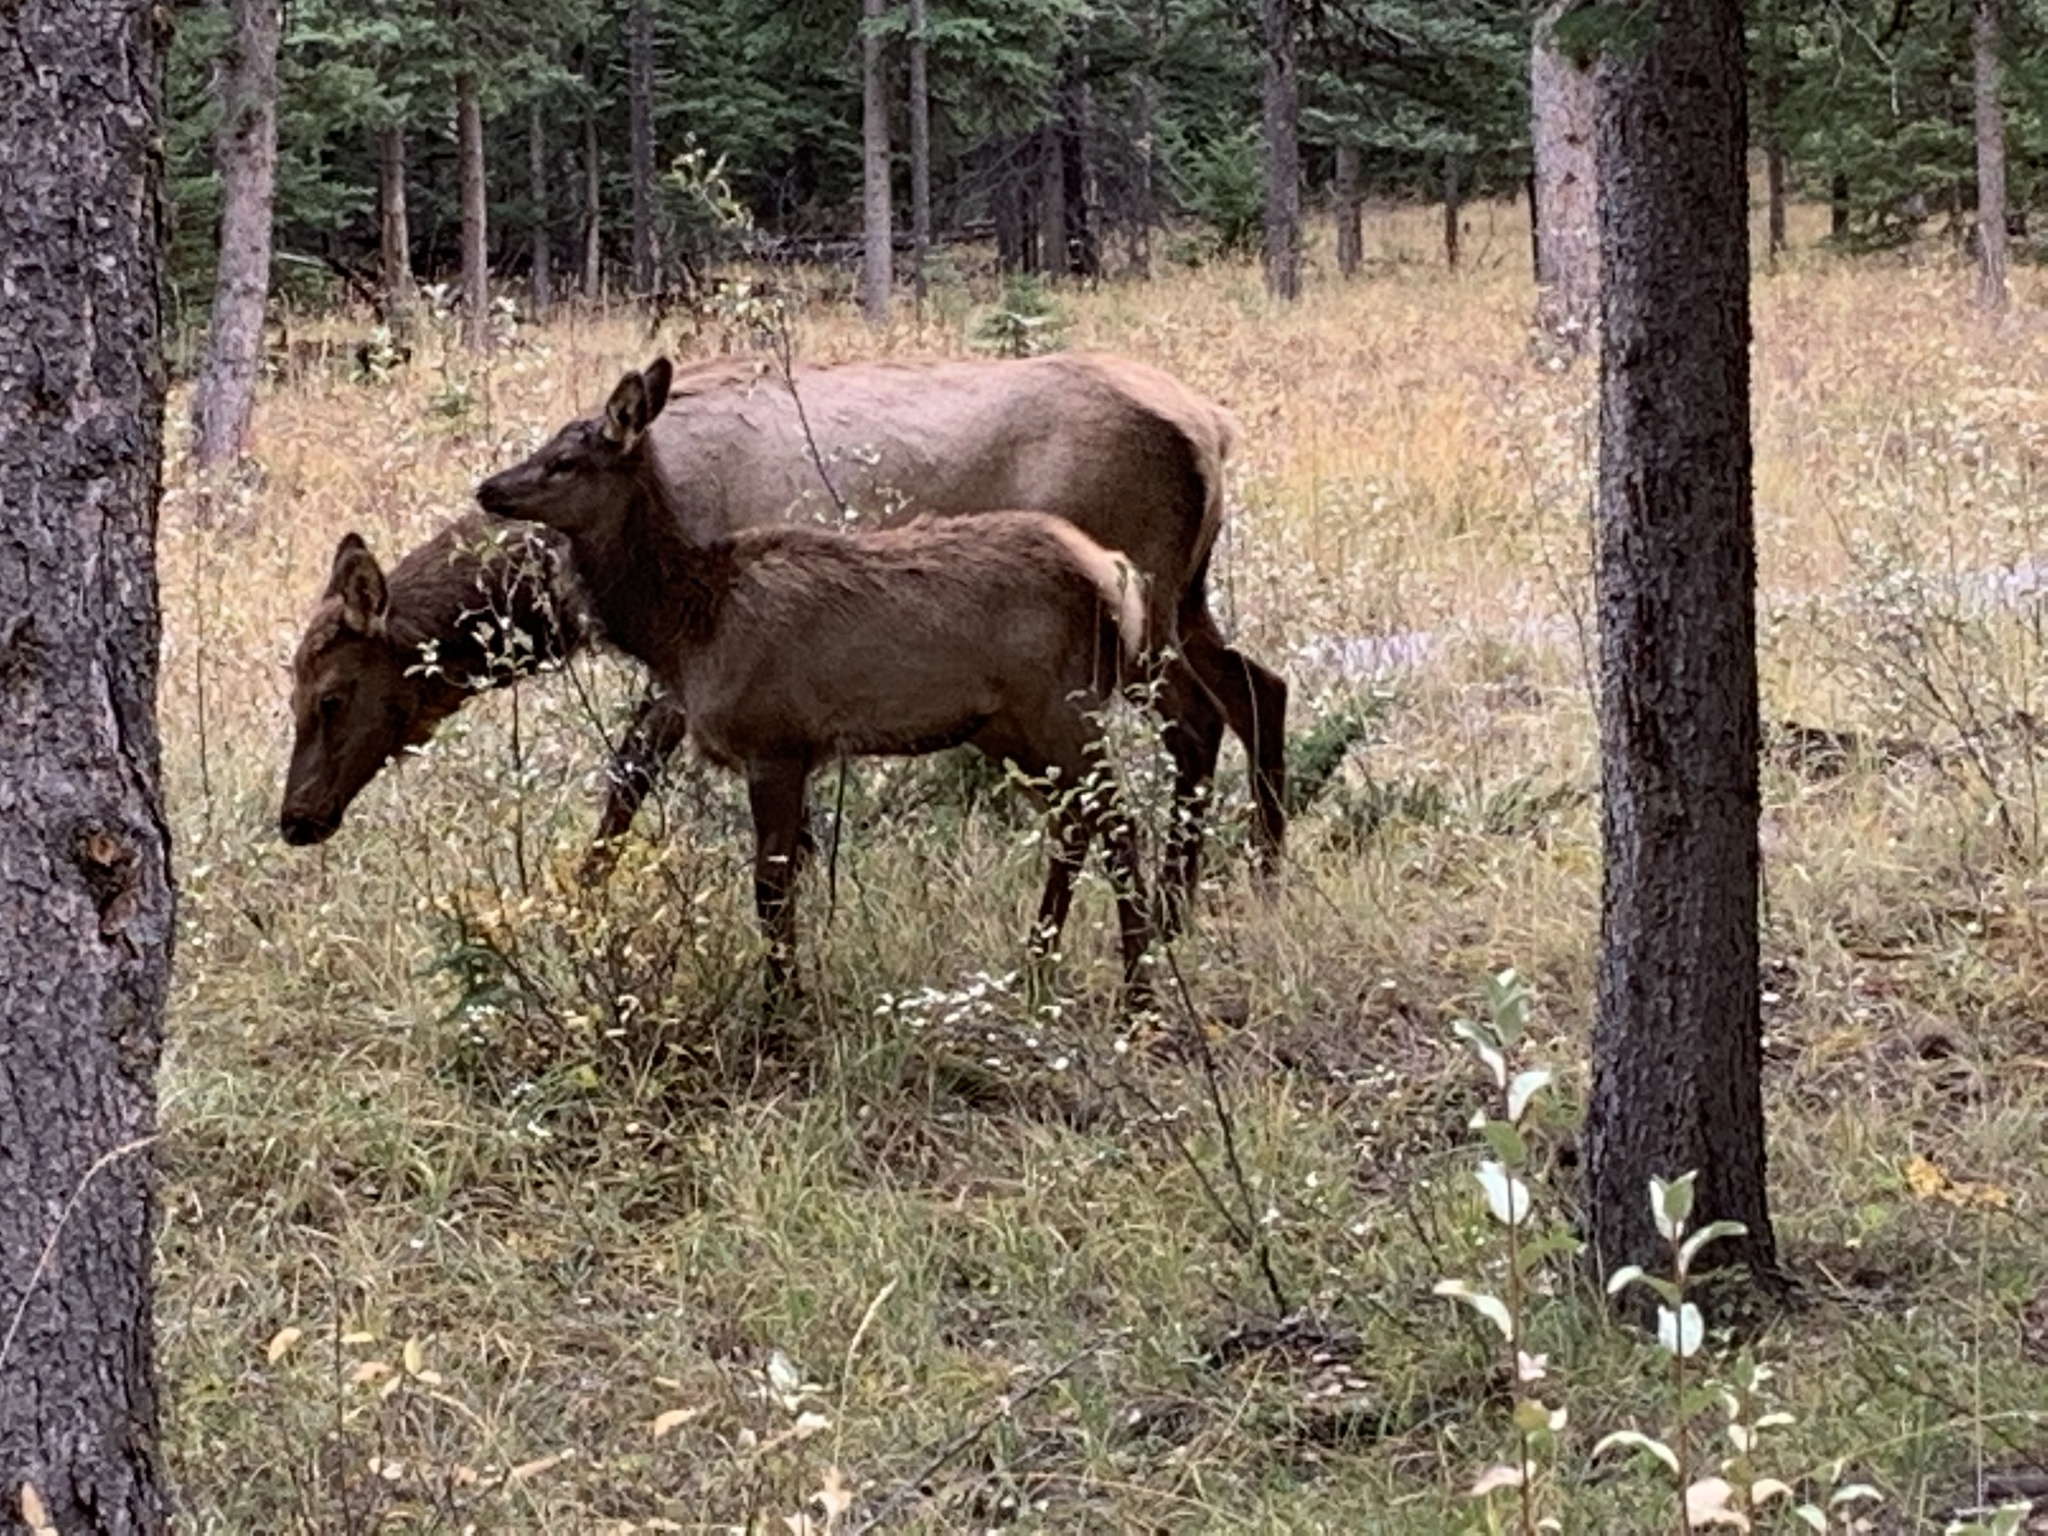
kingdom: Animalia
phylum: Chordata
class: Mammalia
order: Artiodactyla
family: Cervidae
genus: Cervus
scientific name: Cervus elaphus
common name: Red deer
